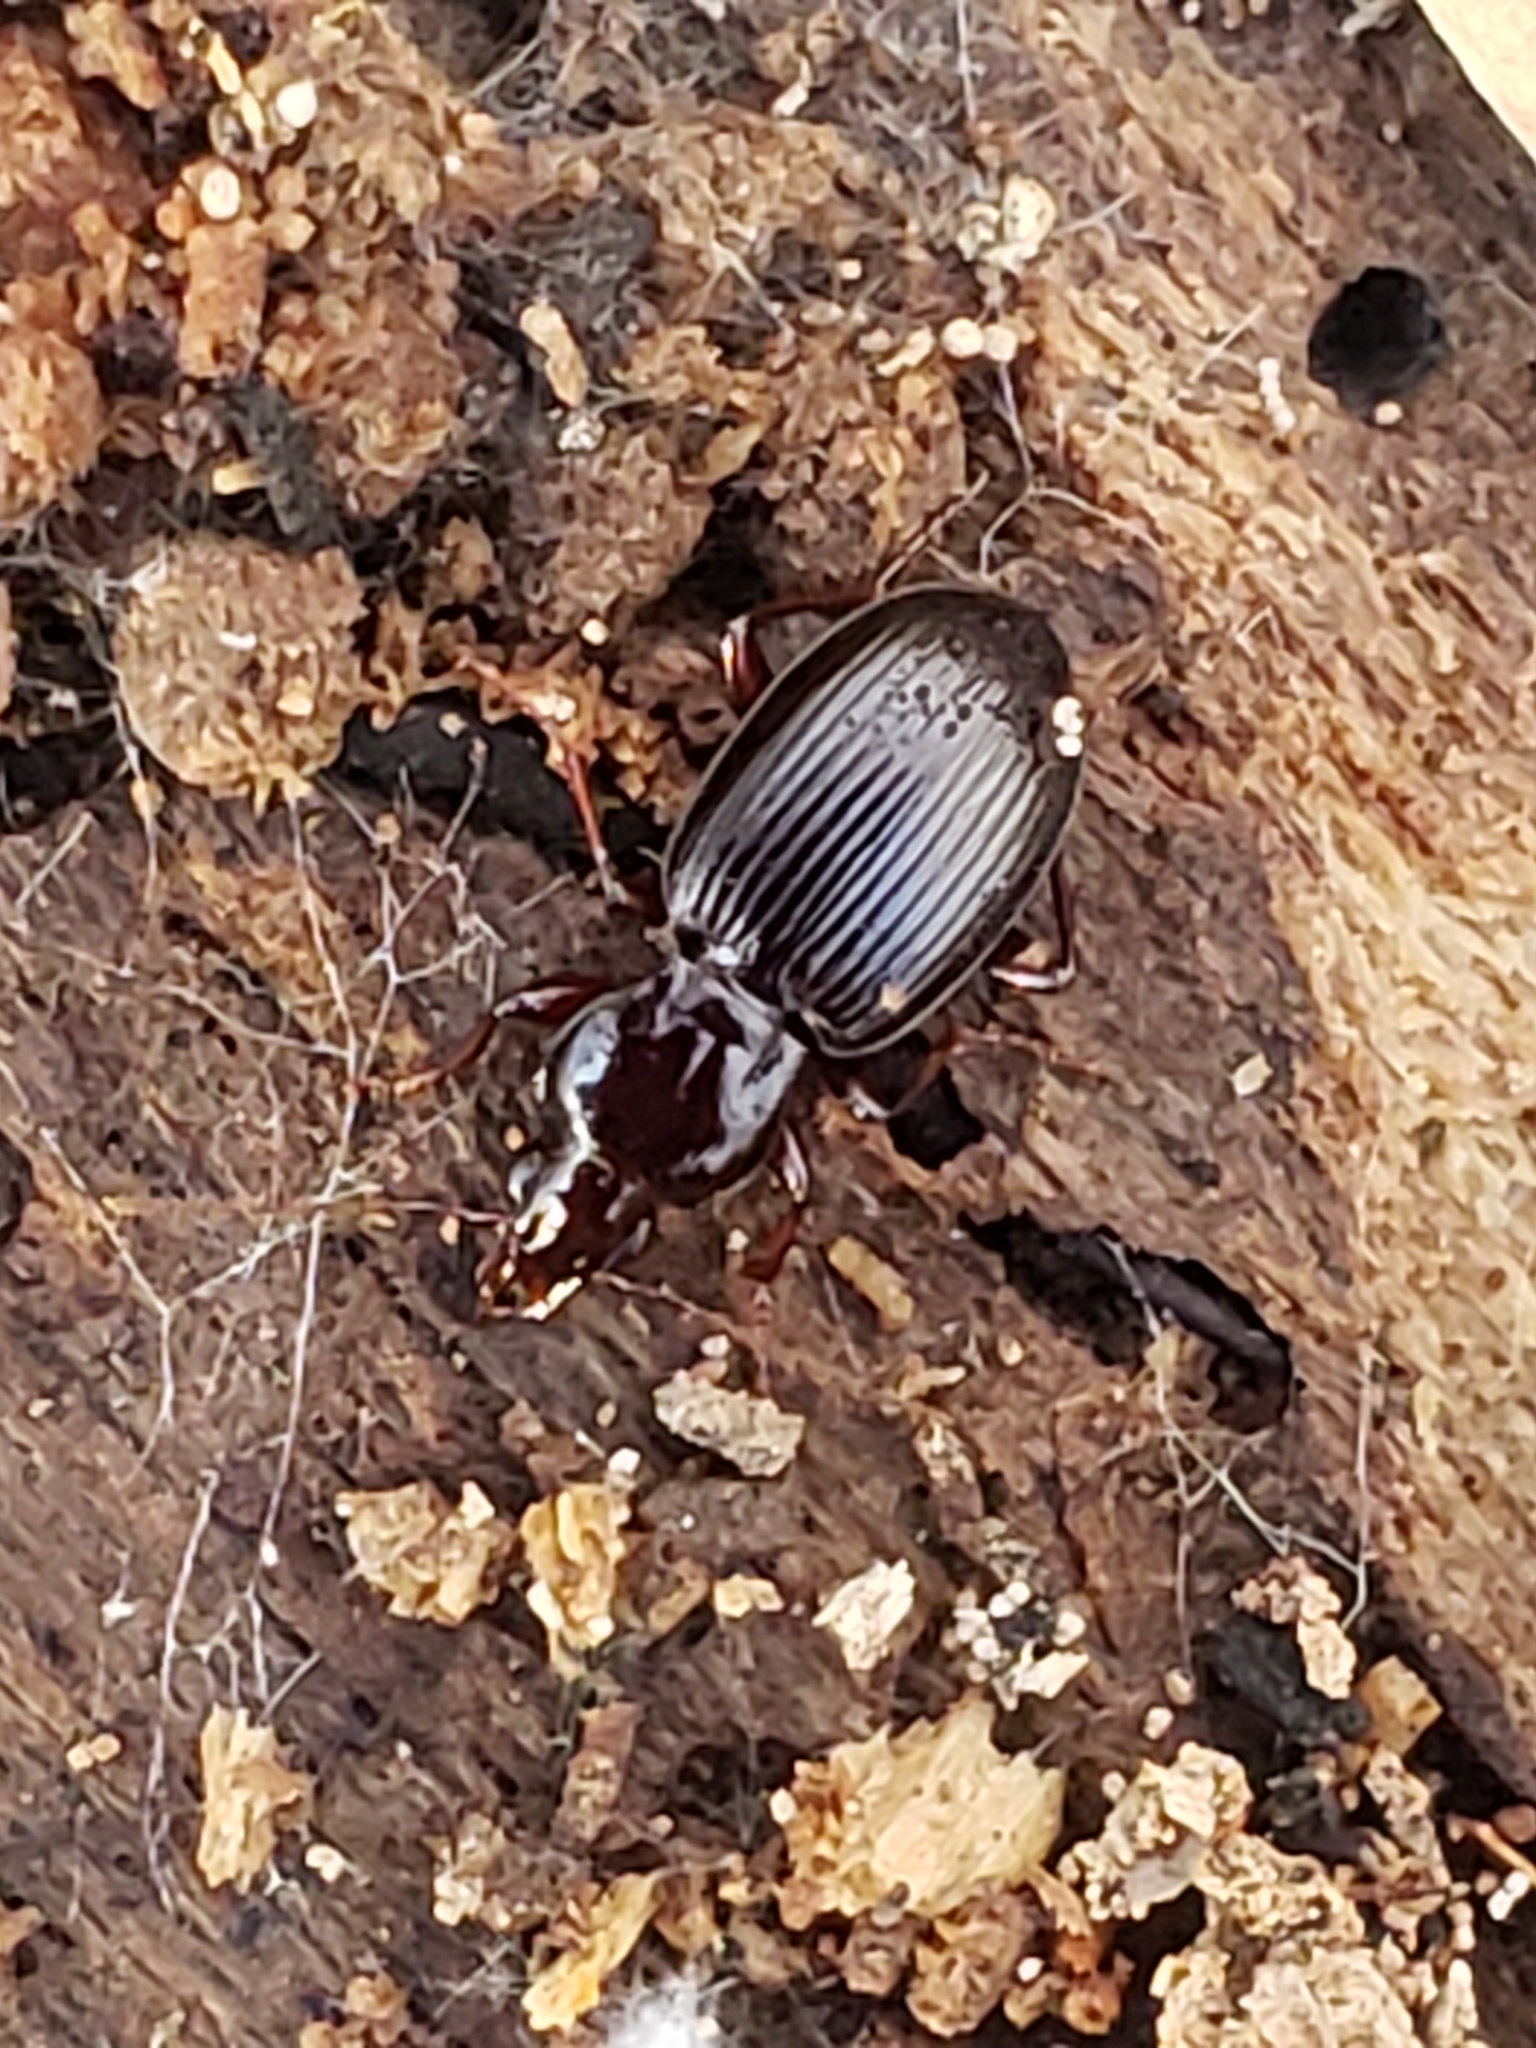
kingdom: Animalia
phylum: Arthropoda
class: Insecta
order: Coleoptera
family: Carabidae
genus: Gastrellarius
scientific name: Gastrellarius honestus
